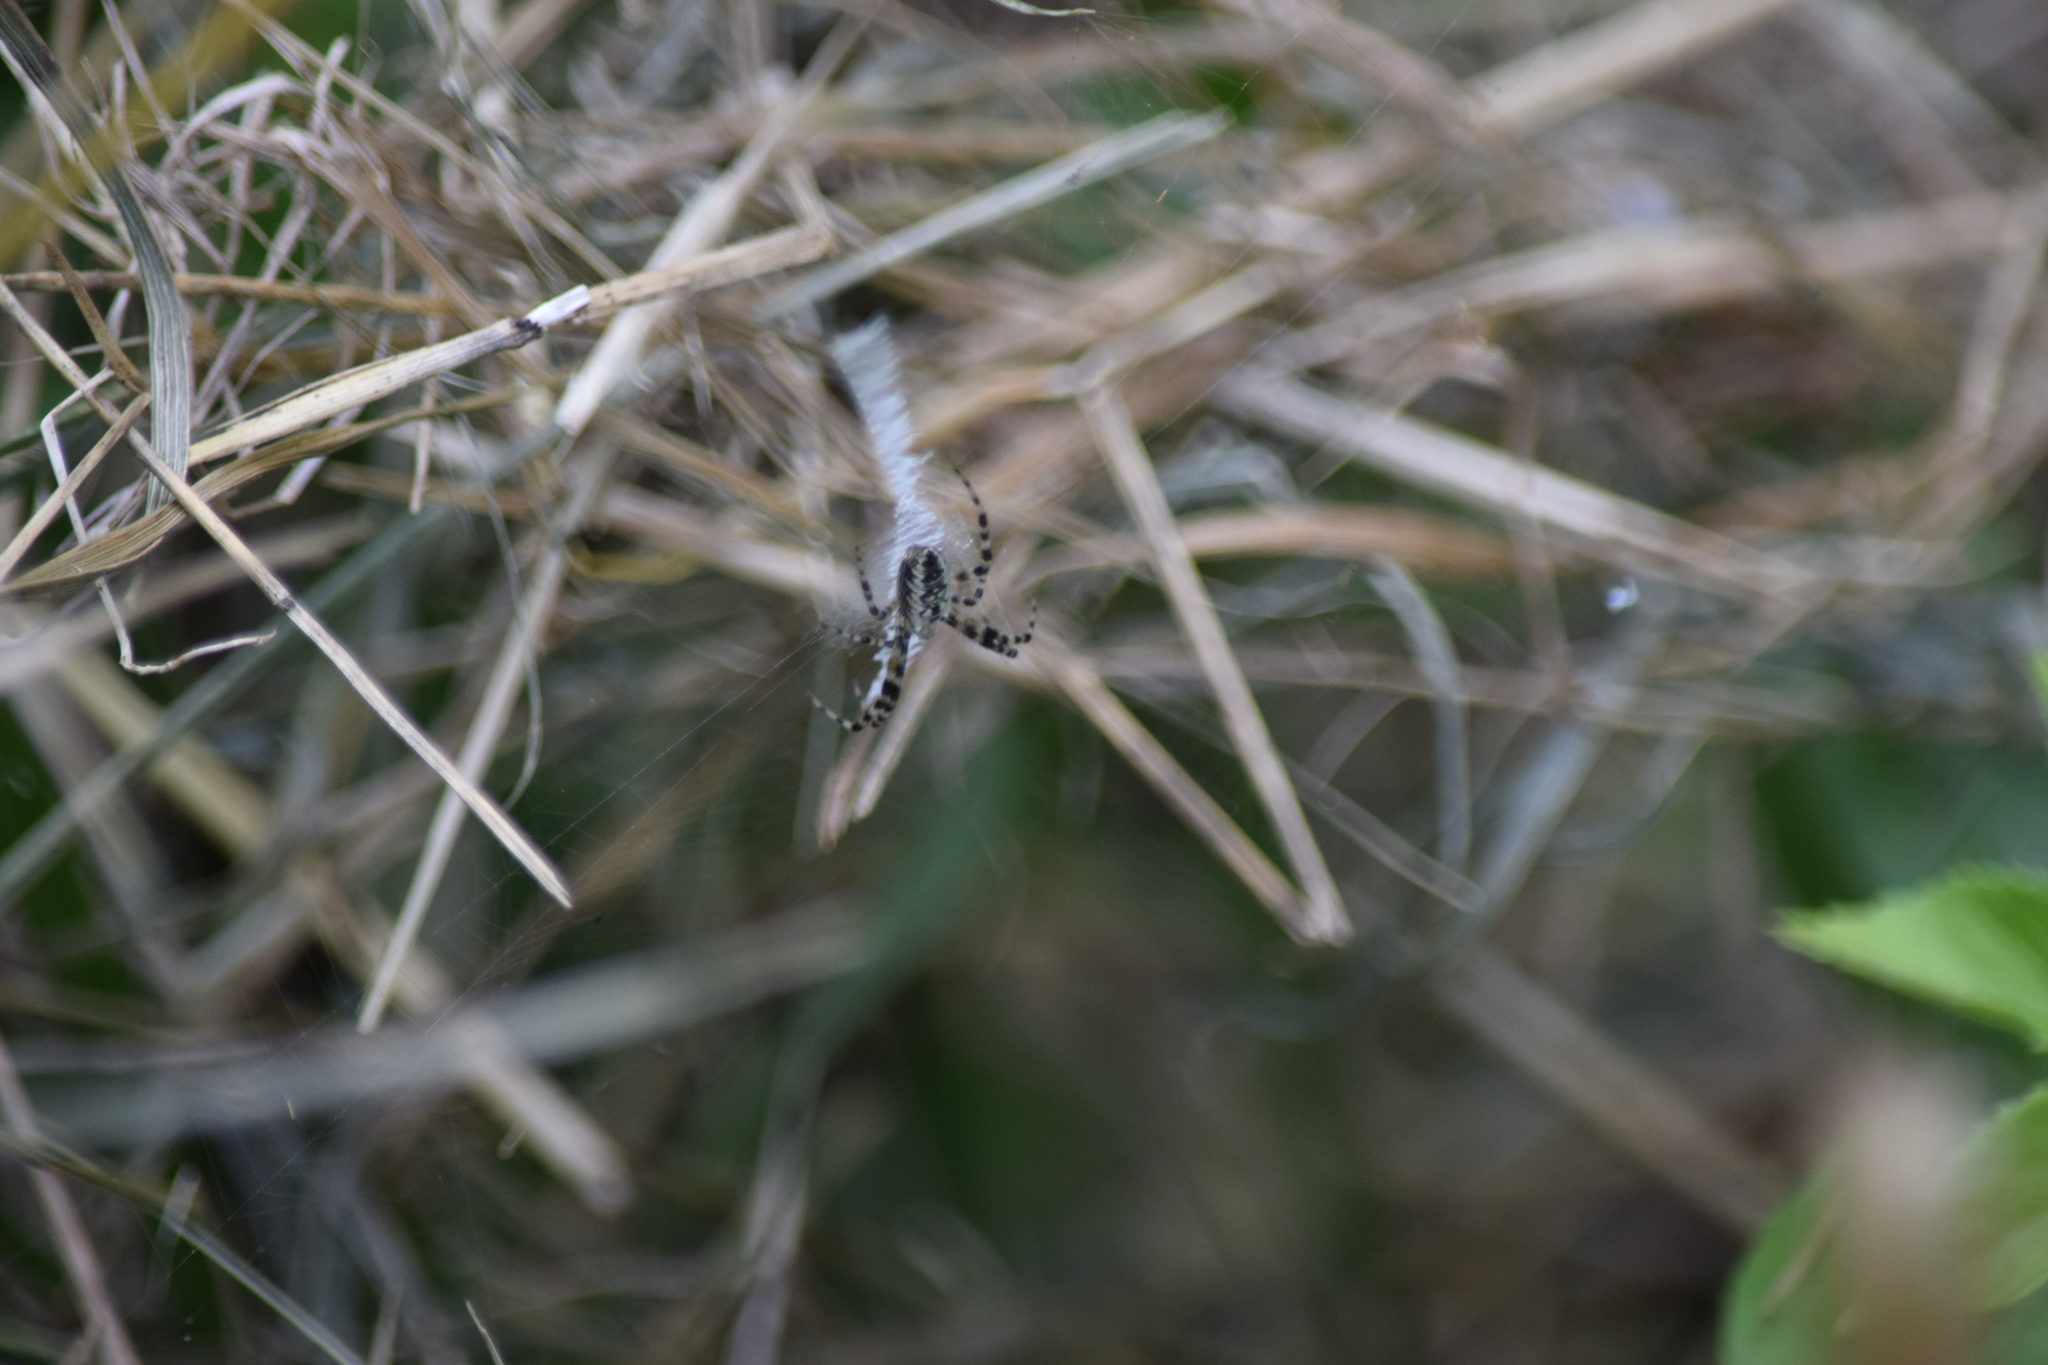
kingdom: Animalia
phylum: Arthropoda
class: Arachnida
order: Araneae
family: Araneidae
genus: Argiope
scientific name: Argiope aurantia
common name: Orb weavers
